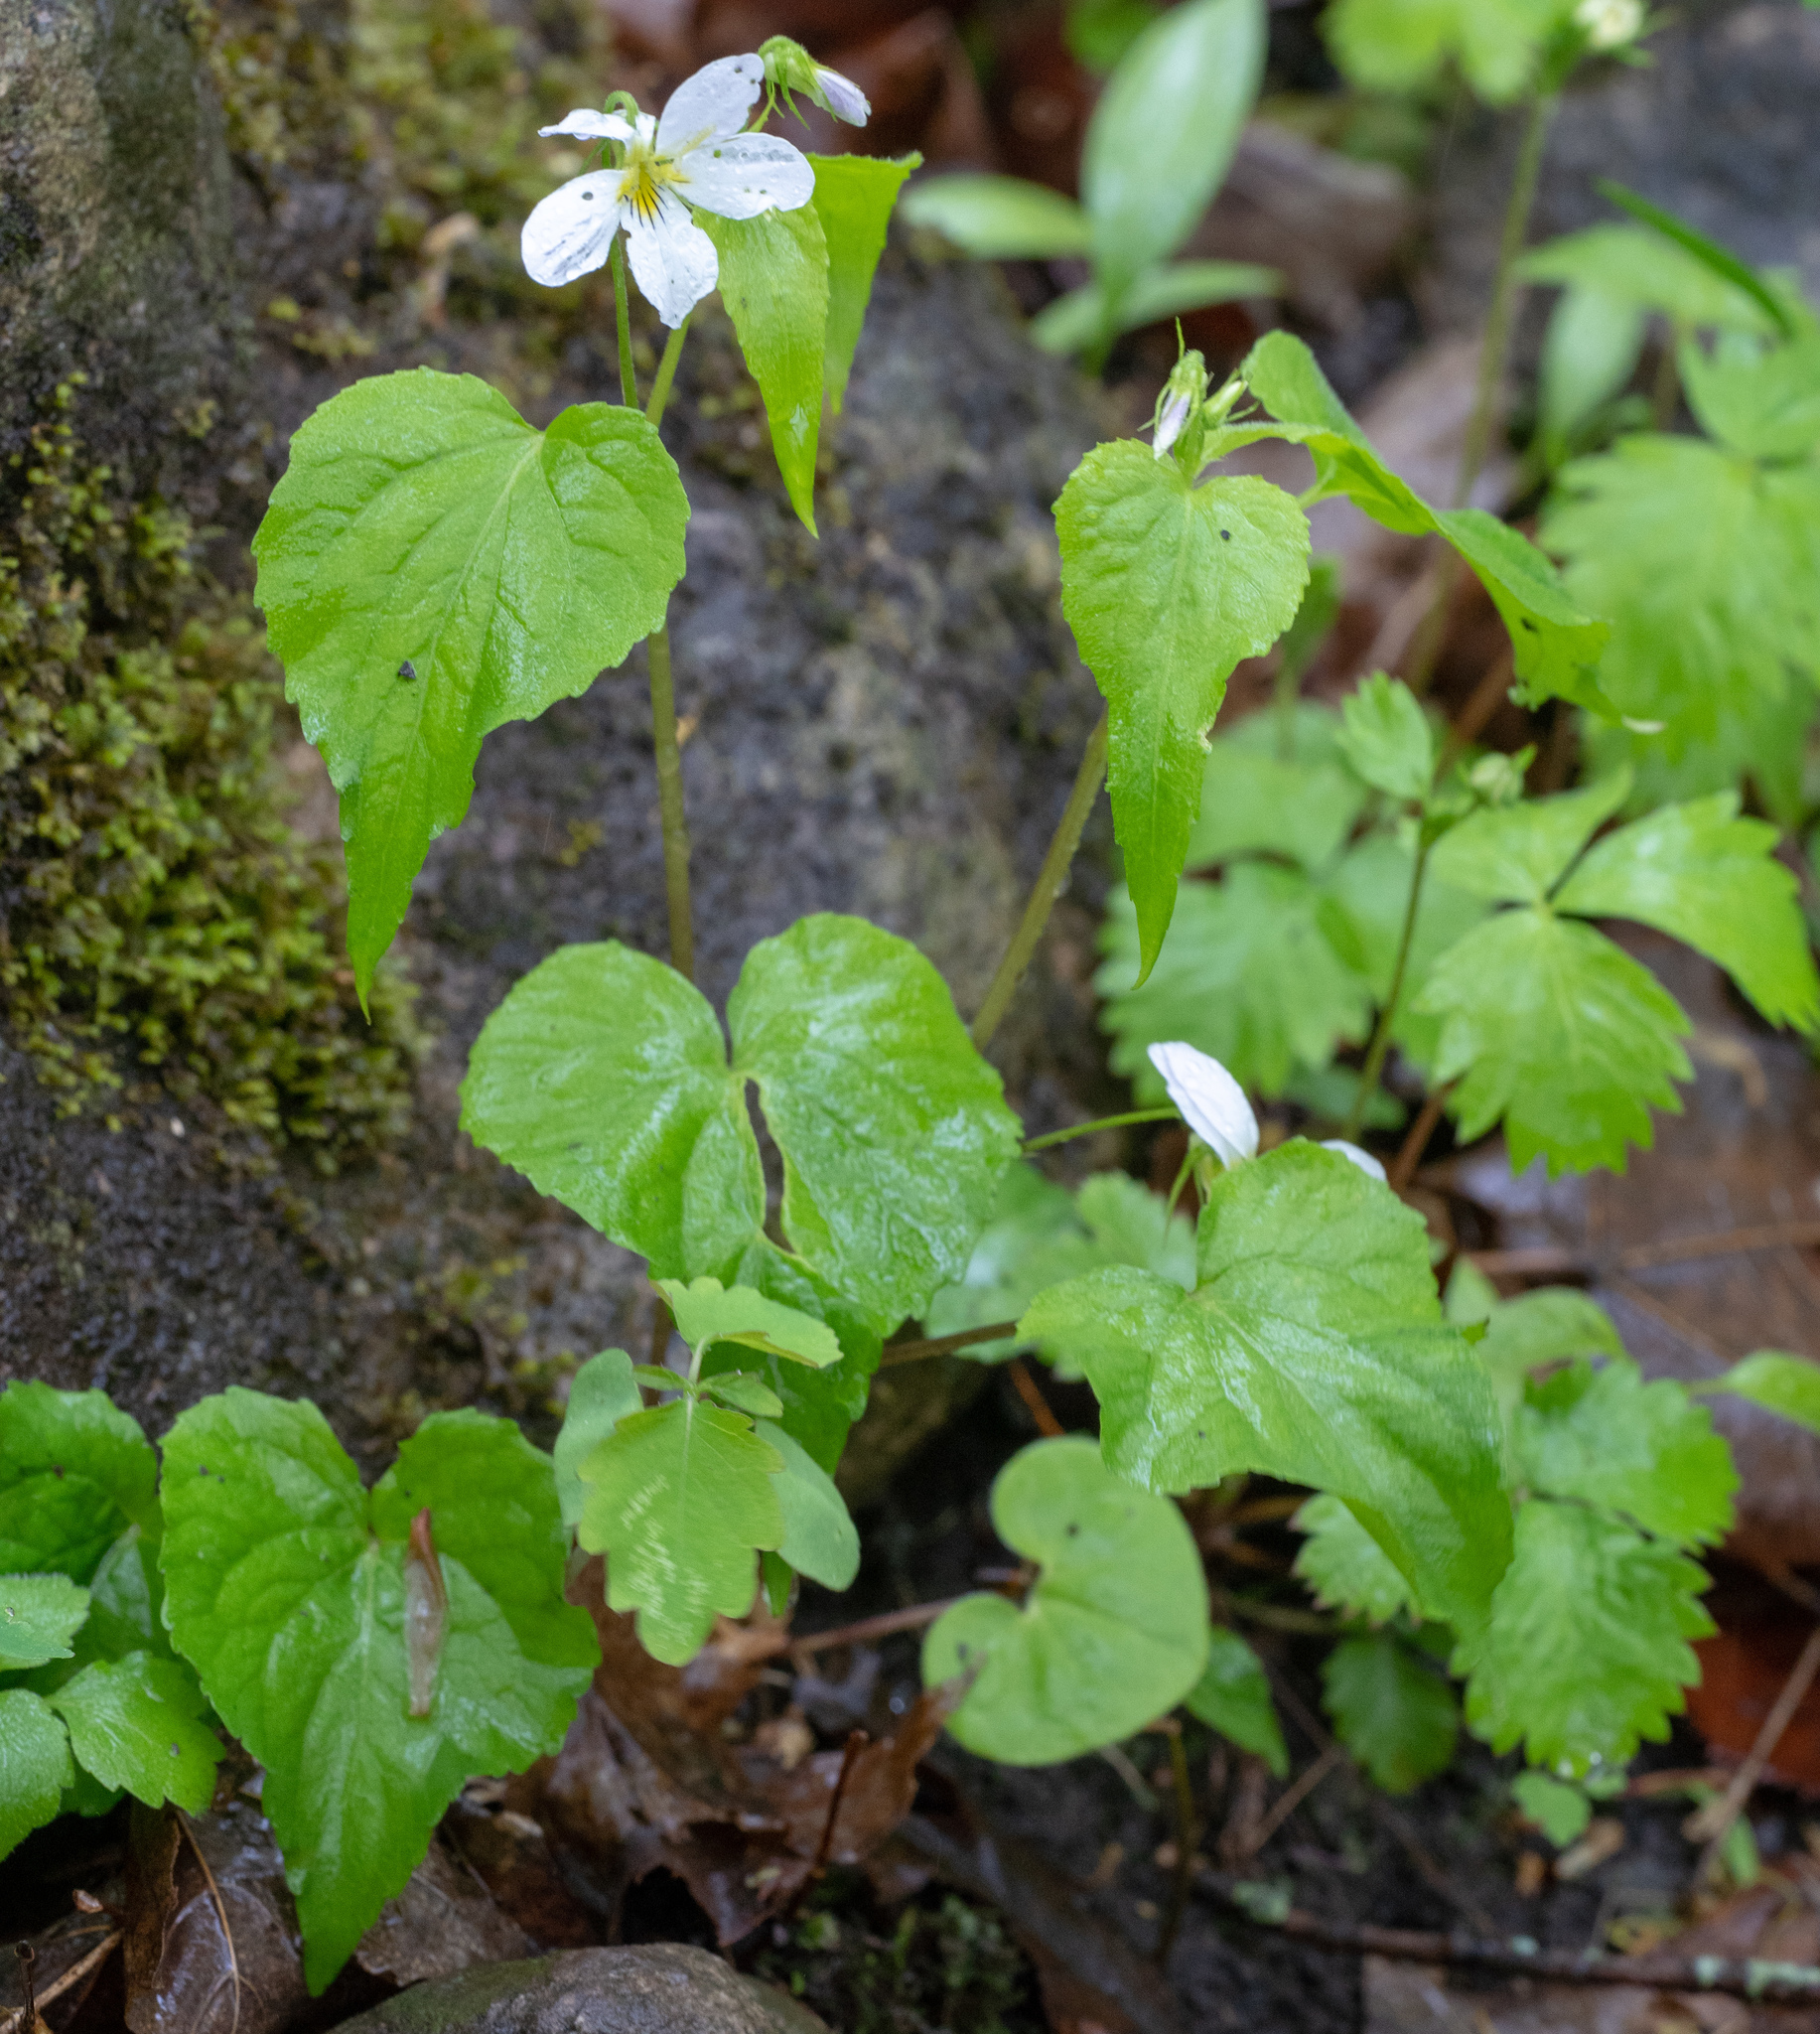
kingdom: Plantae
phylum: Tracheophyta
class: Magnoliopsida
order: Malpighiales
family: Violaceae
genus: Viola
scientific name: Viola canadensis
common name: Canada violet
